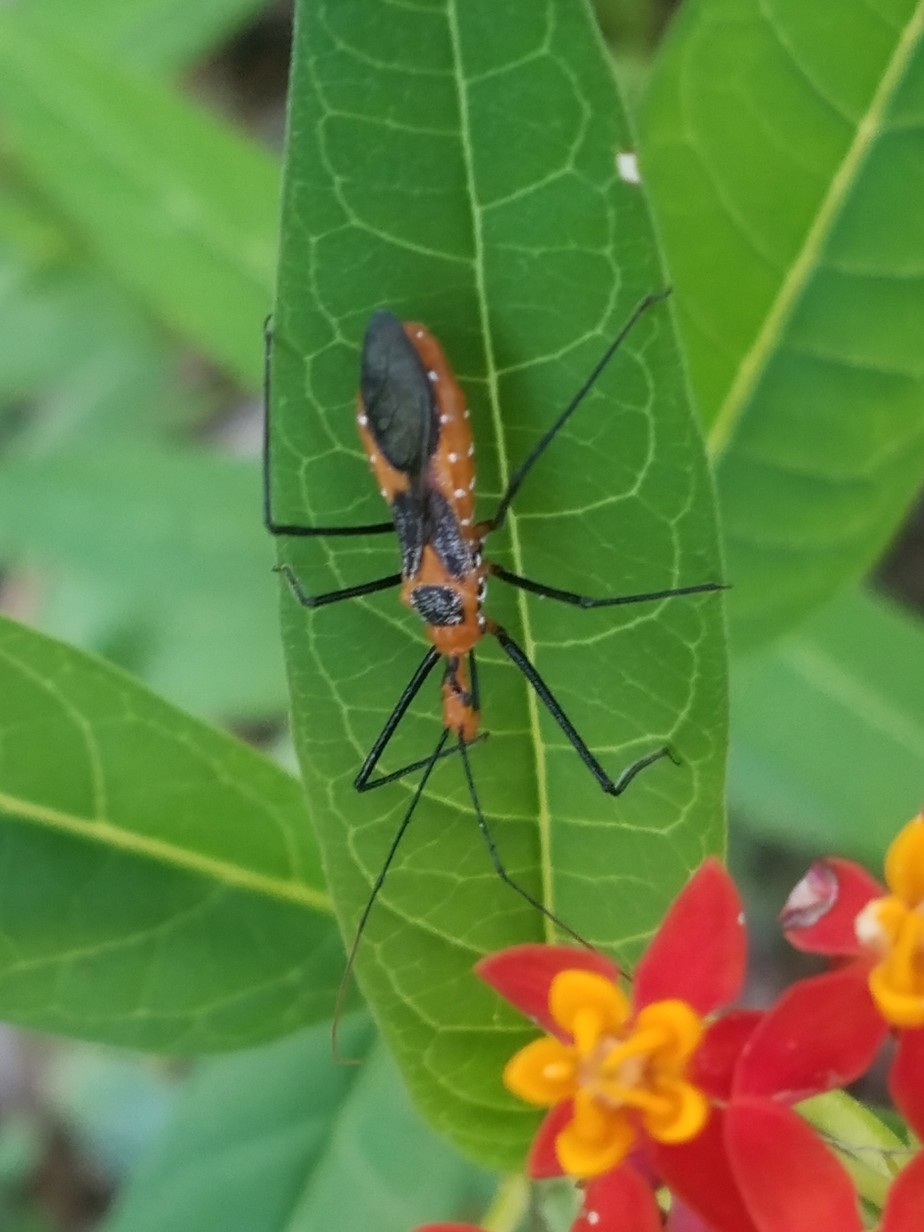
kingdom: Animalia
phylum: Arthropoda
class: Insecta
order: Hemiptera
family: Reduviidae
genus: Zelus
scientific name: Zelus longipes
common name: Milkweed assassin bug
